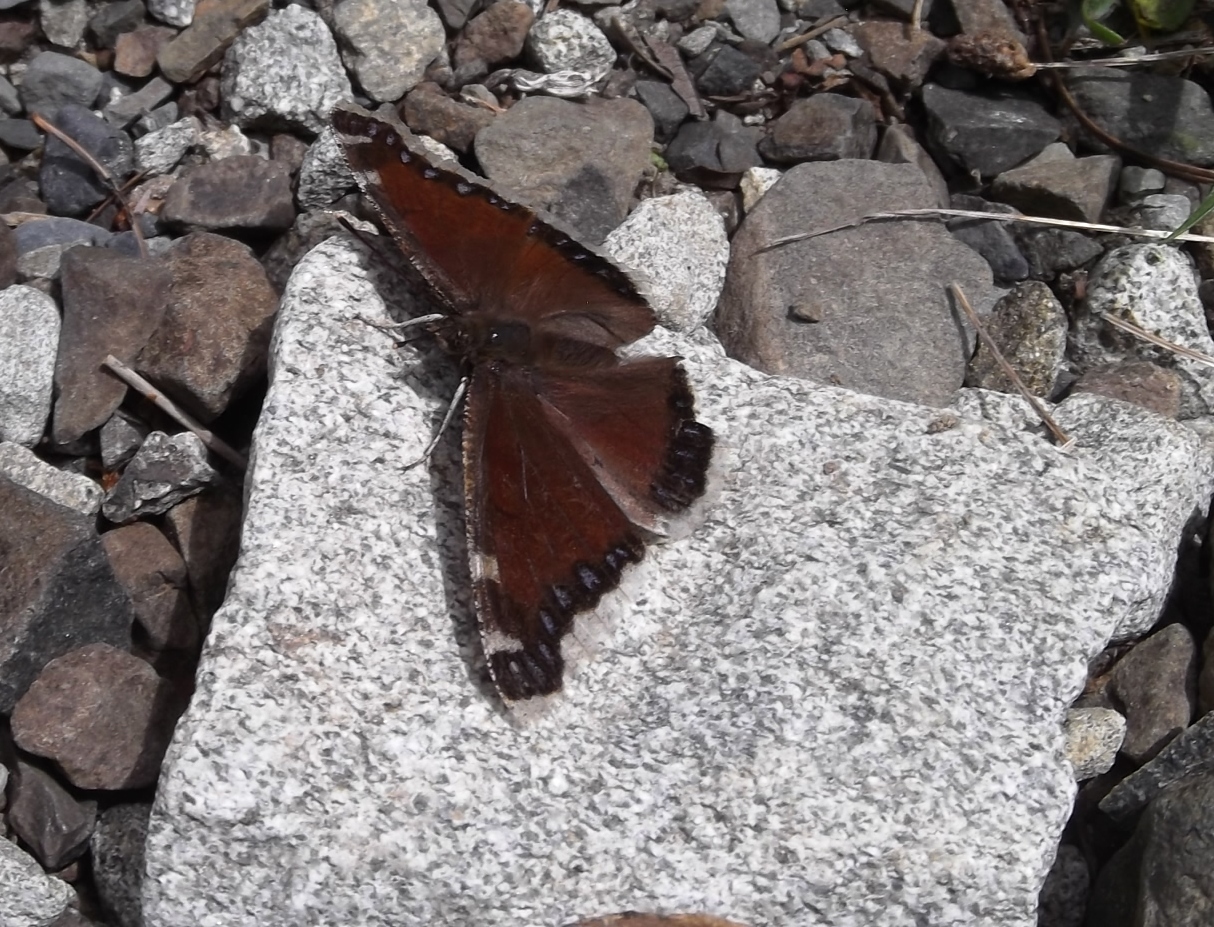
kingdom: Animalia
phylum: Arthropoda
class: Insecta
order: Lepidoptera
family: Nymphalidae
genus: Nymphalis
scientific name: Nymphalis antiopa
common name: Camberwell beauty
